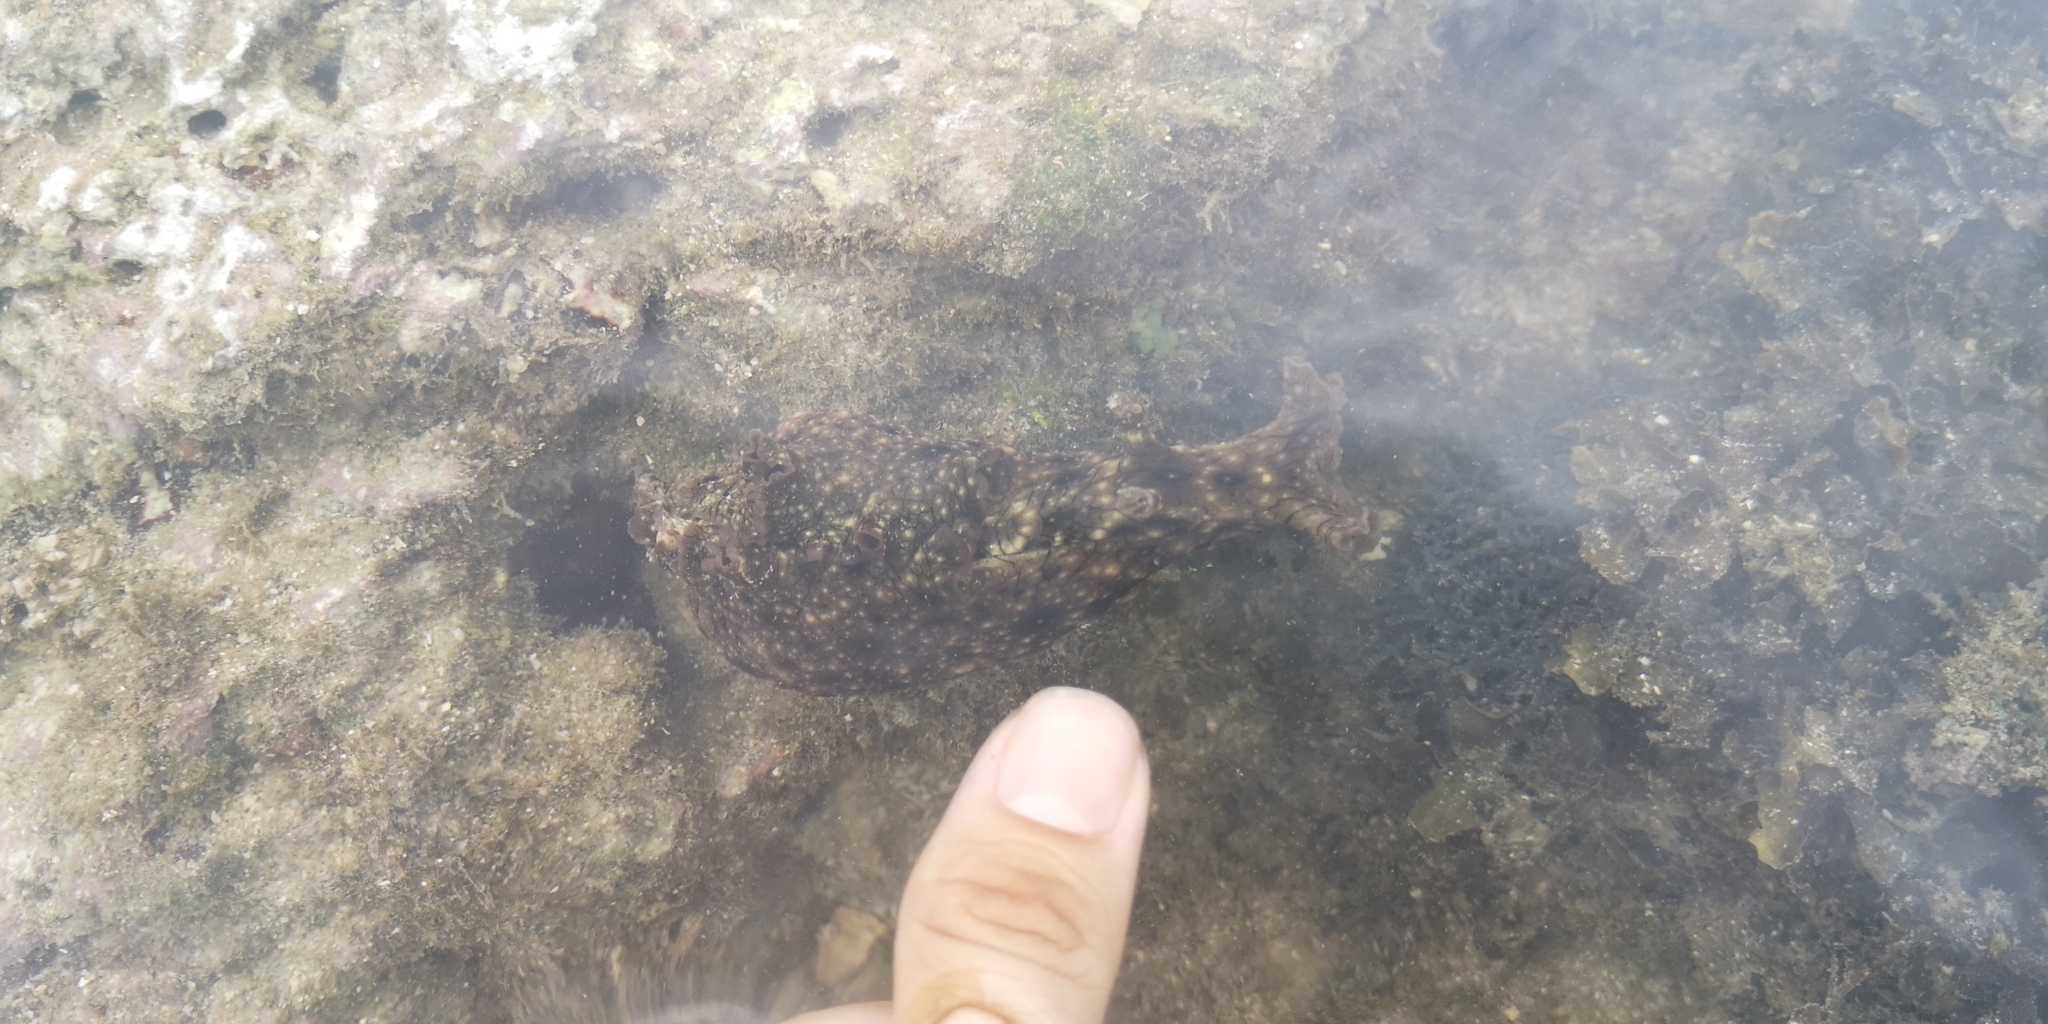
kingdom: Animalia
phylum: Mollusca
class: Gastropoda
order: Aplysiida
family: Aplysiidae
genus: Aplysia
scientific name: Aplysia argus
